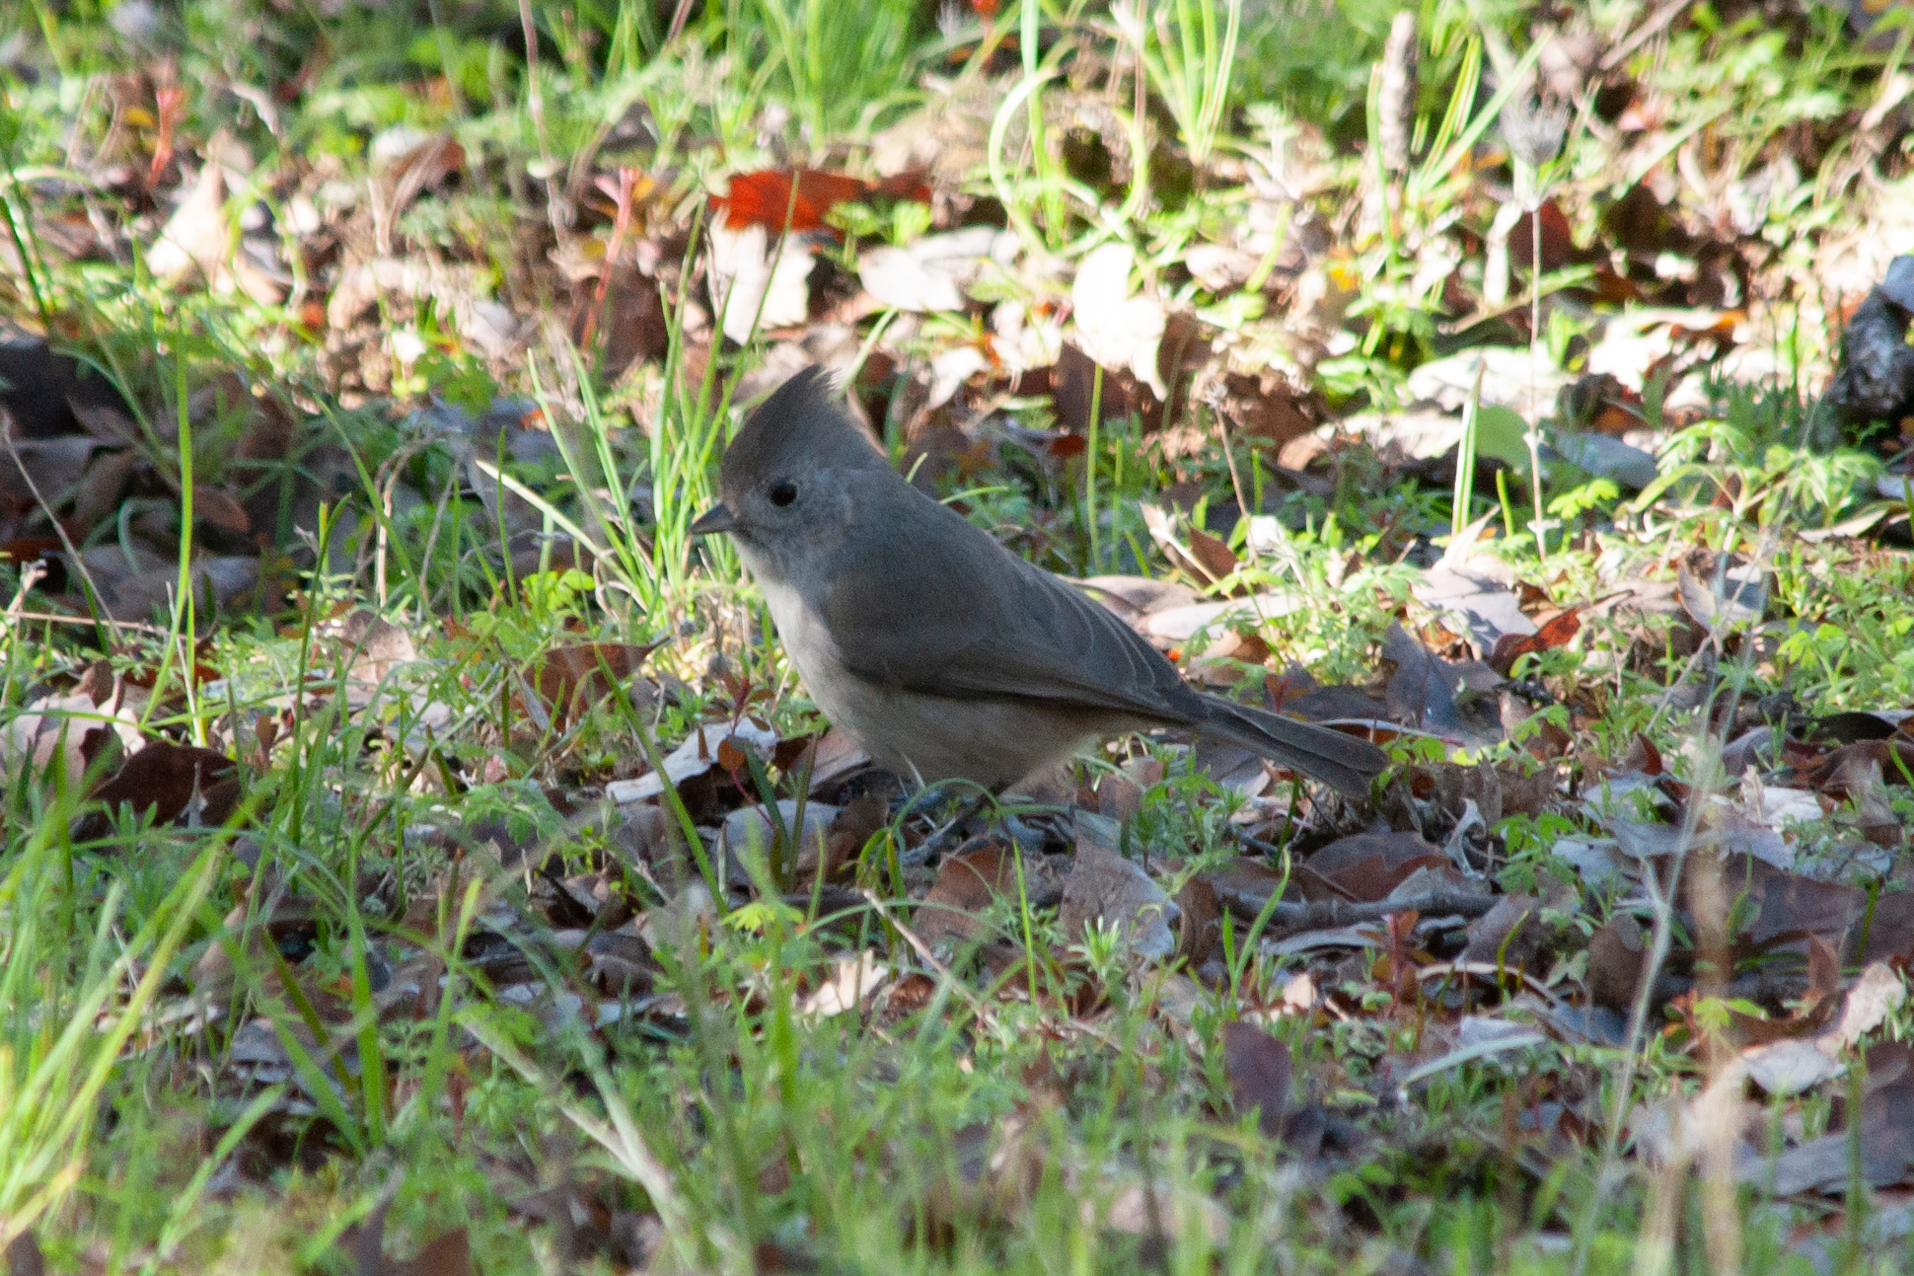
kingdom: Animalia
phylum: Chordata
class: Aves
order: Passeriformes
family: Paridae
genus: Baeolophus
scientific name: Baeolophus inornatus
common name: Oak titmouse
